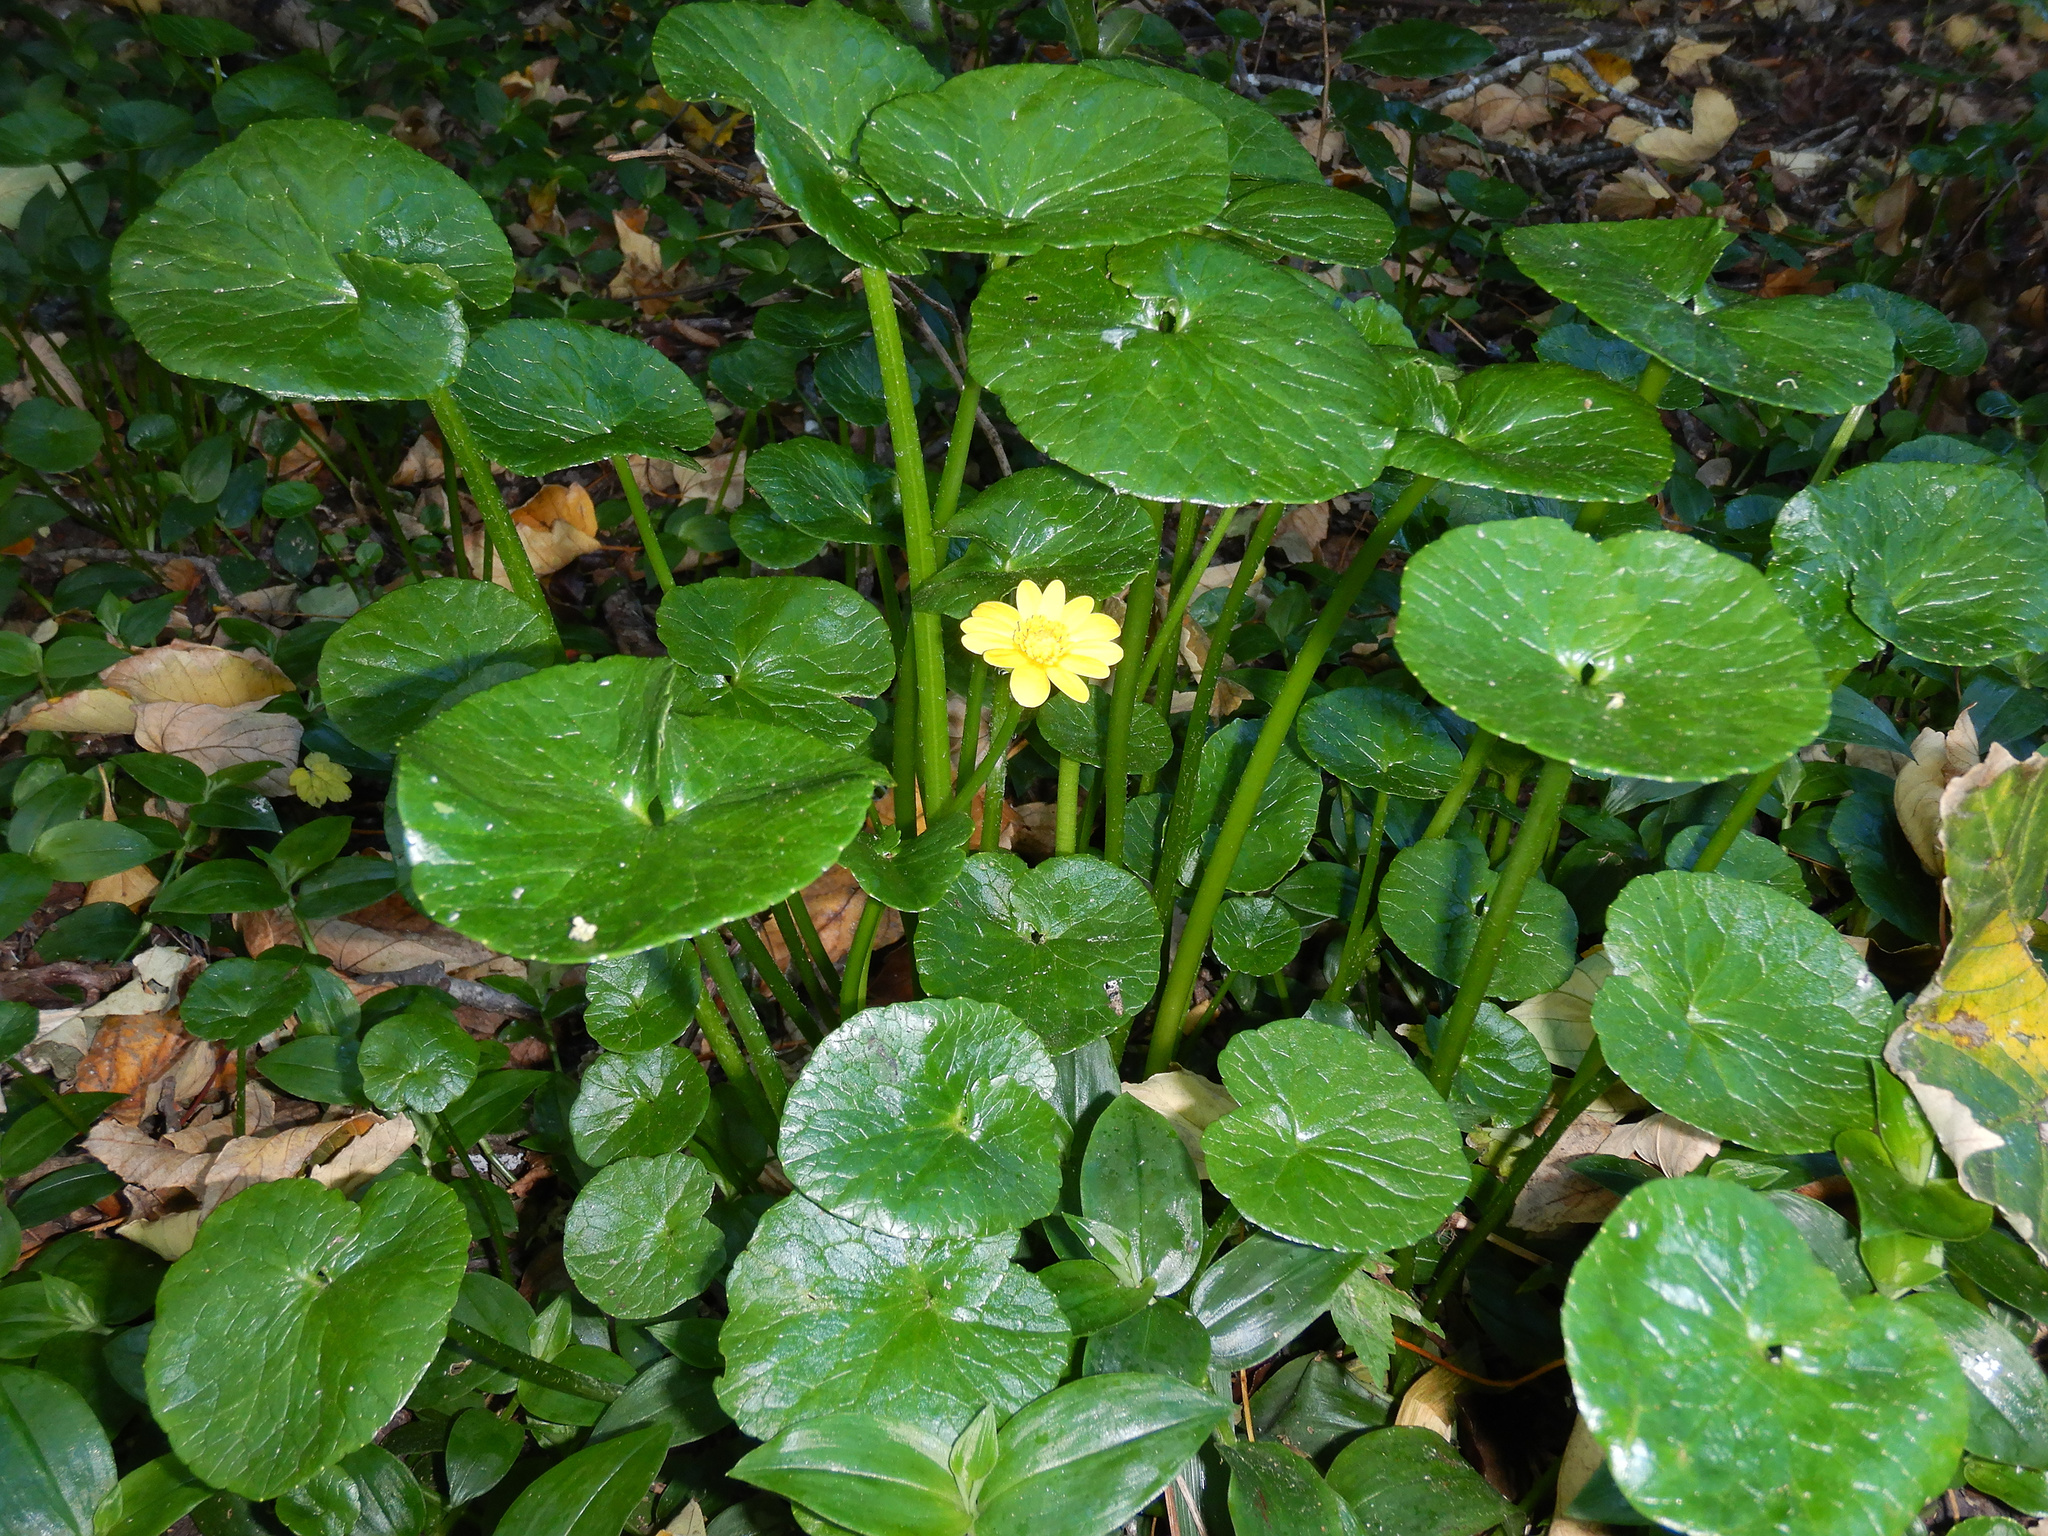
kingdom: Plantae
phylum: Tracheophyta
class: Magnoliopsida
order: Ranunculales
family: Ranunculaceae
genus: Ficaria
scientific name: Ficaria verna
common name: Lesser celandine
